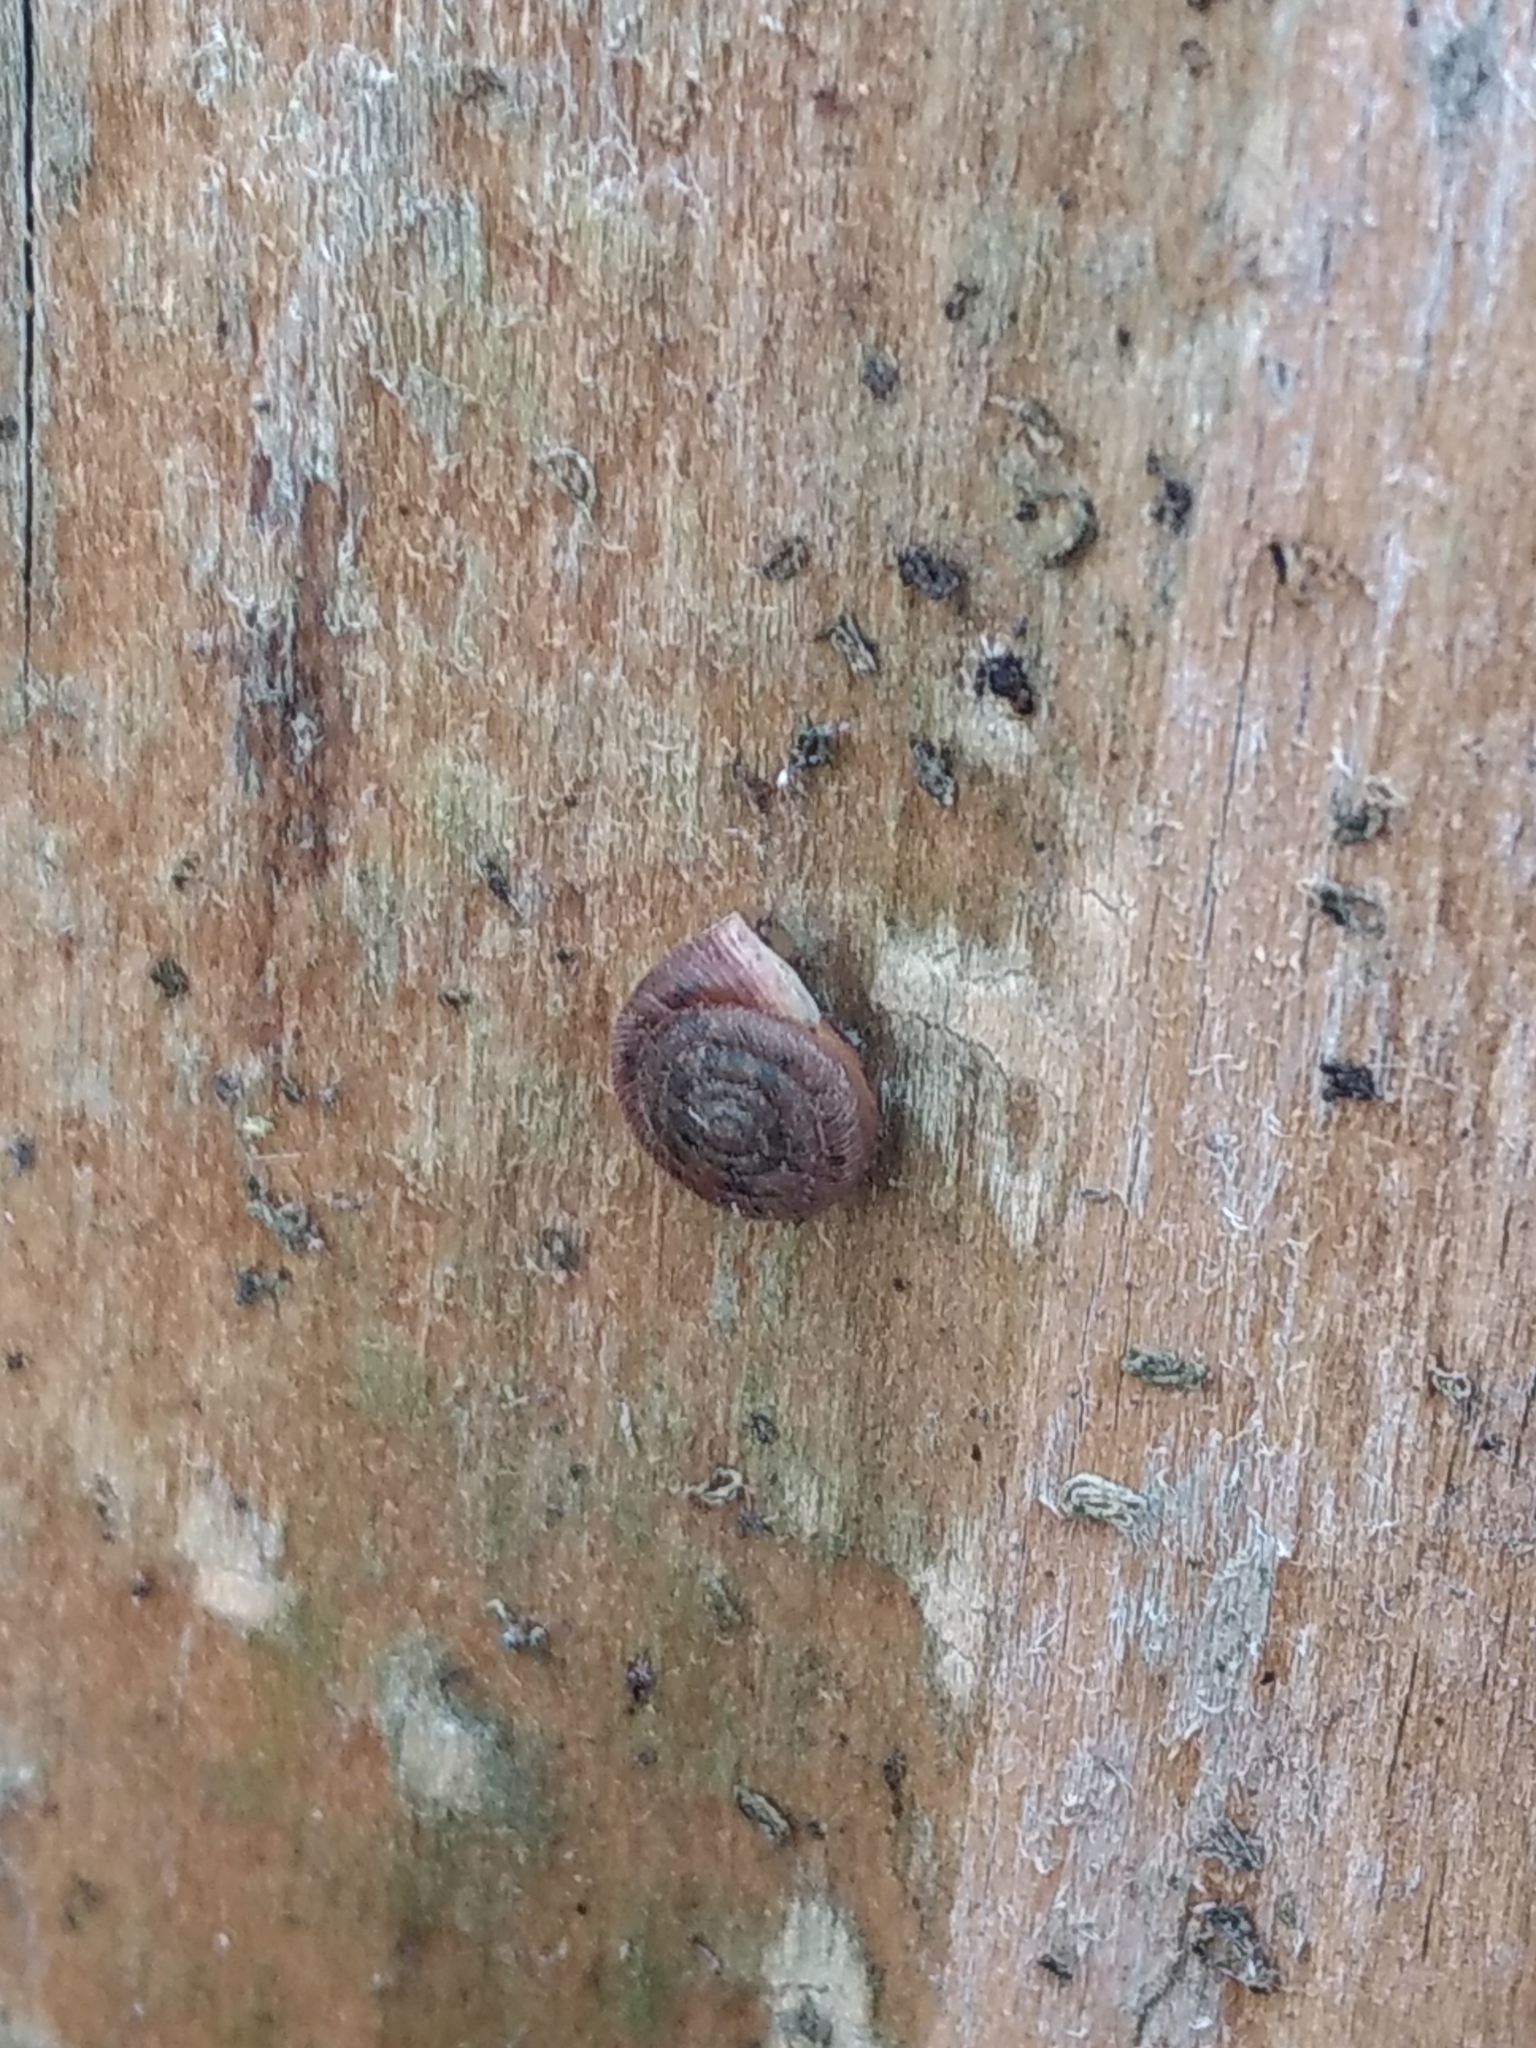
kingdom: Animalia
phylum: Mollusca
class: Gastropoda
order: Stylommatophora
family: Polygyridae
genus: Polygyra
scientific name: Polygyra cereolus
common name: Southern flatcone snail
